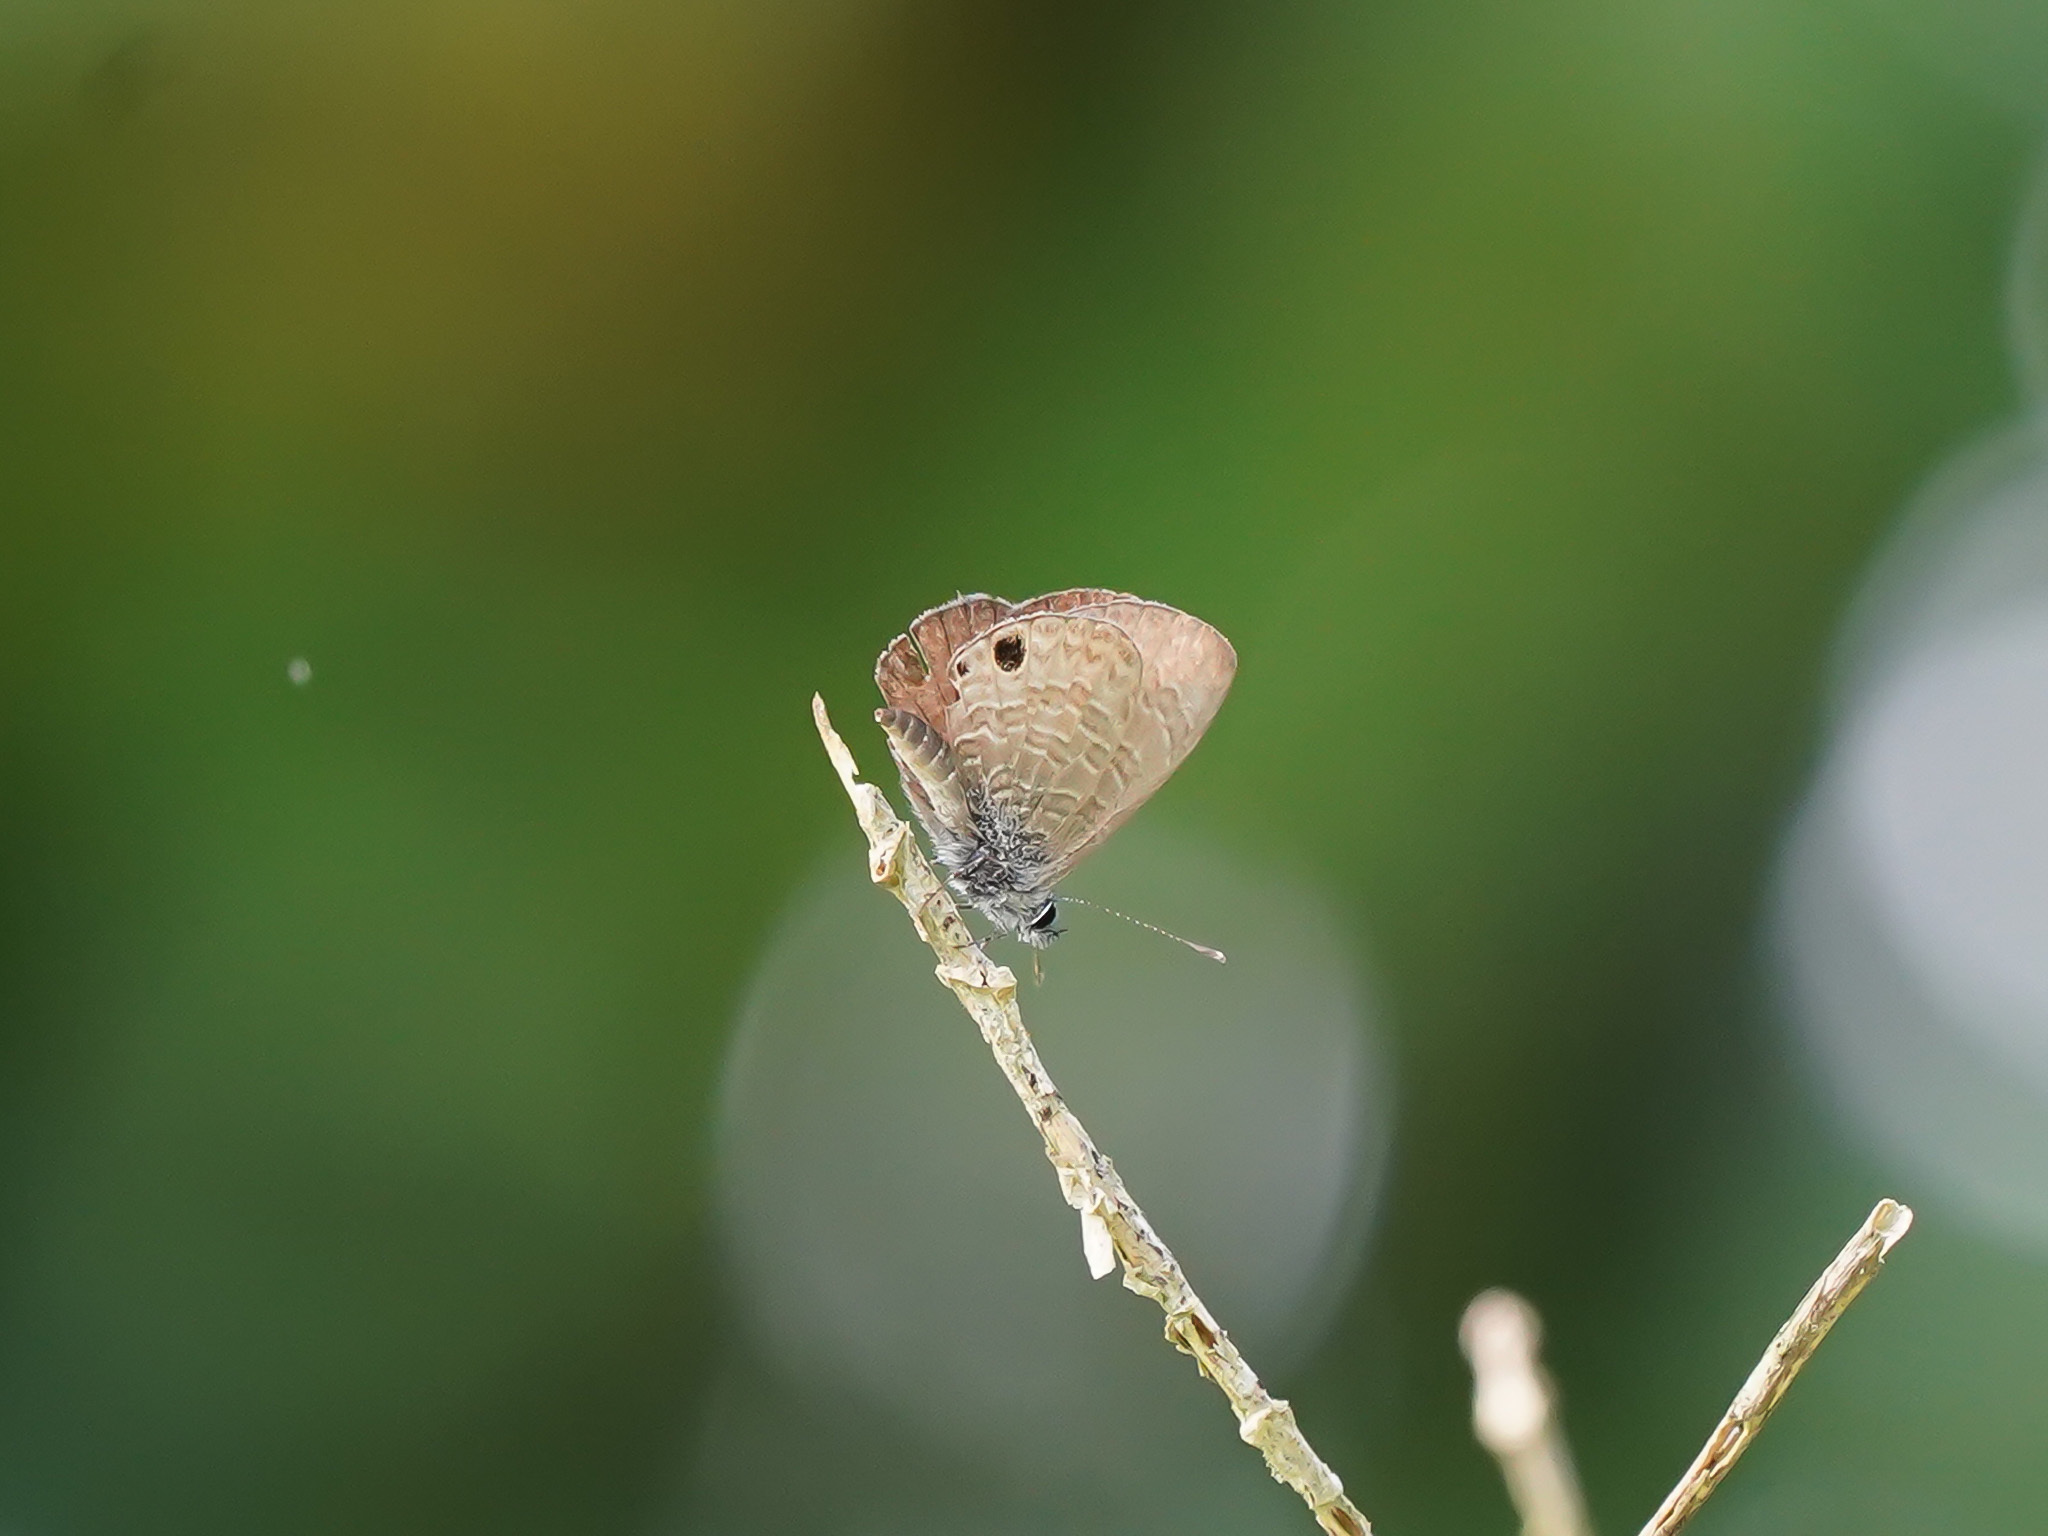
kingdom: Animalia
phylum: Arthropoda
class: Insecta
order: Lepidoptera
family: Lycaenidae
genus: Prosotas
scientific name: Prosotas dubiosa
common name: Tailless lineblue
